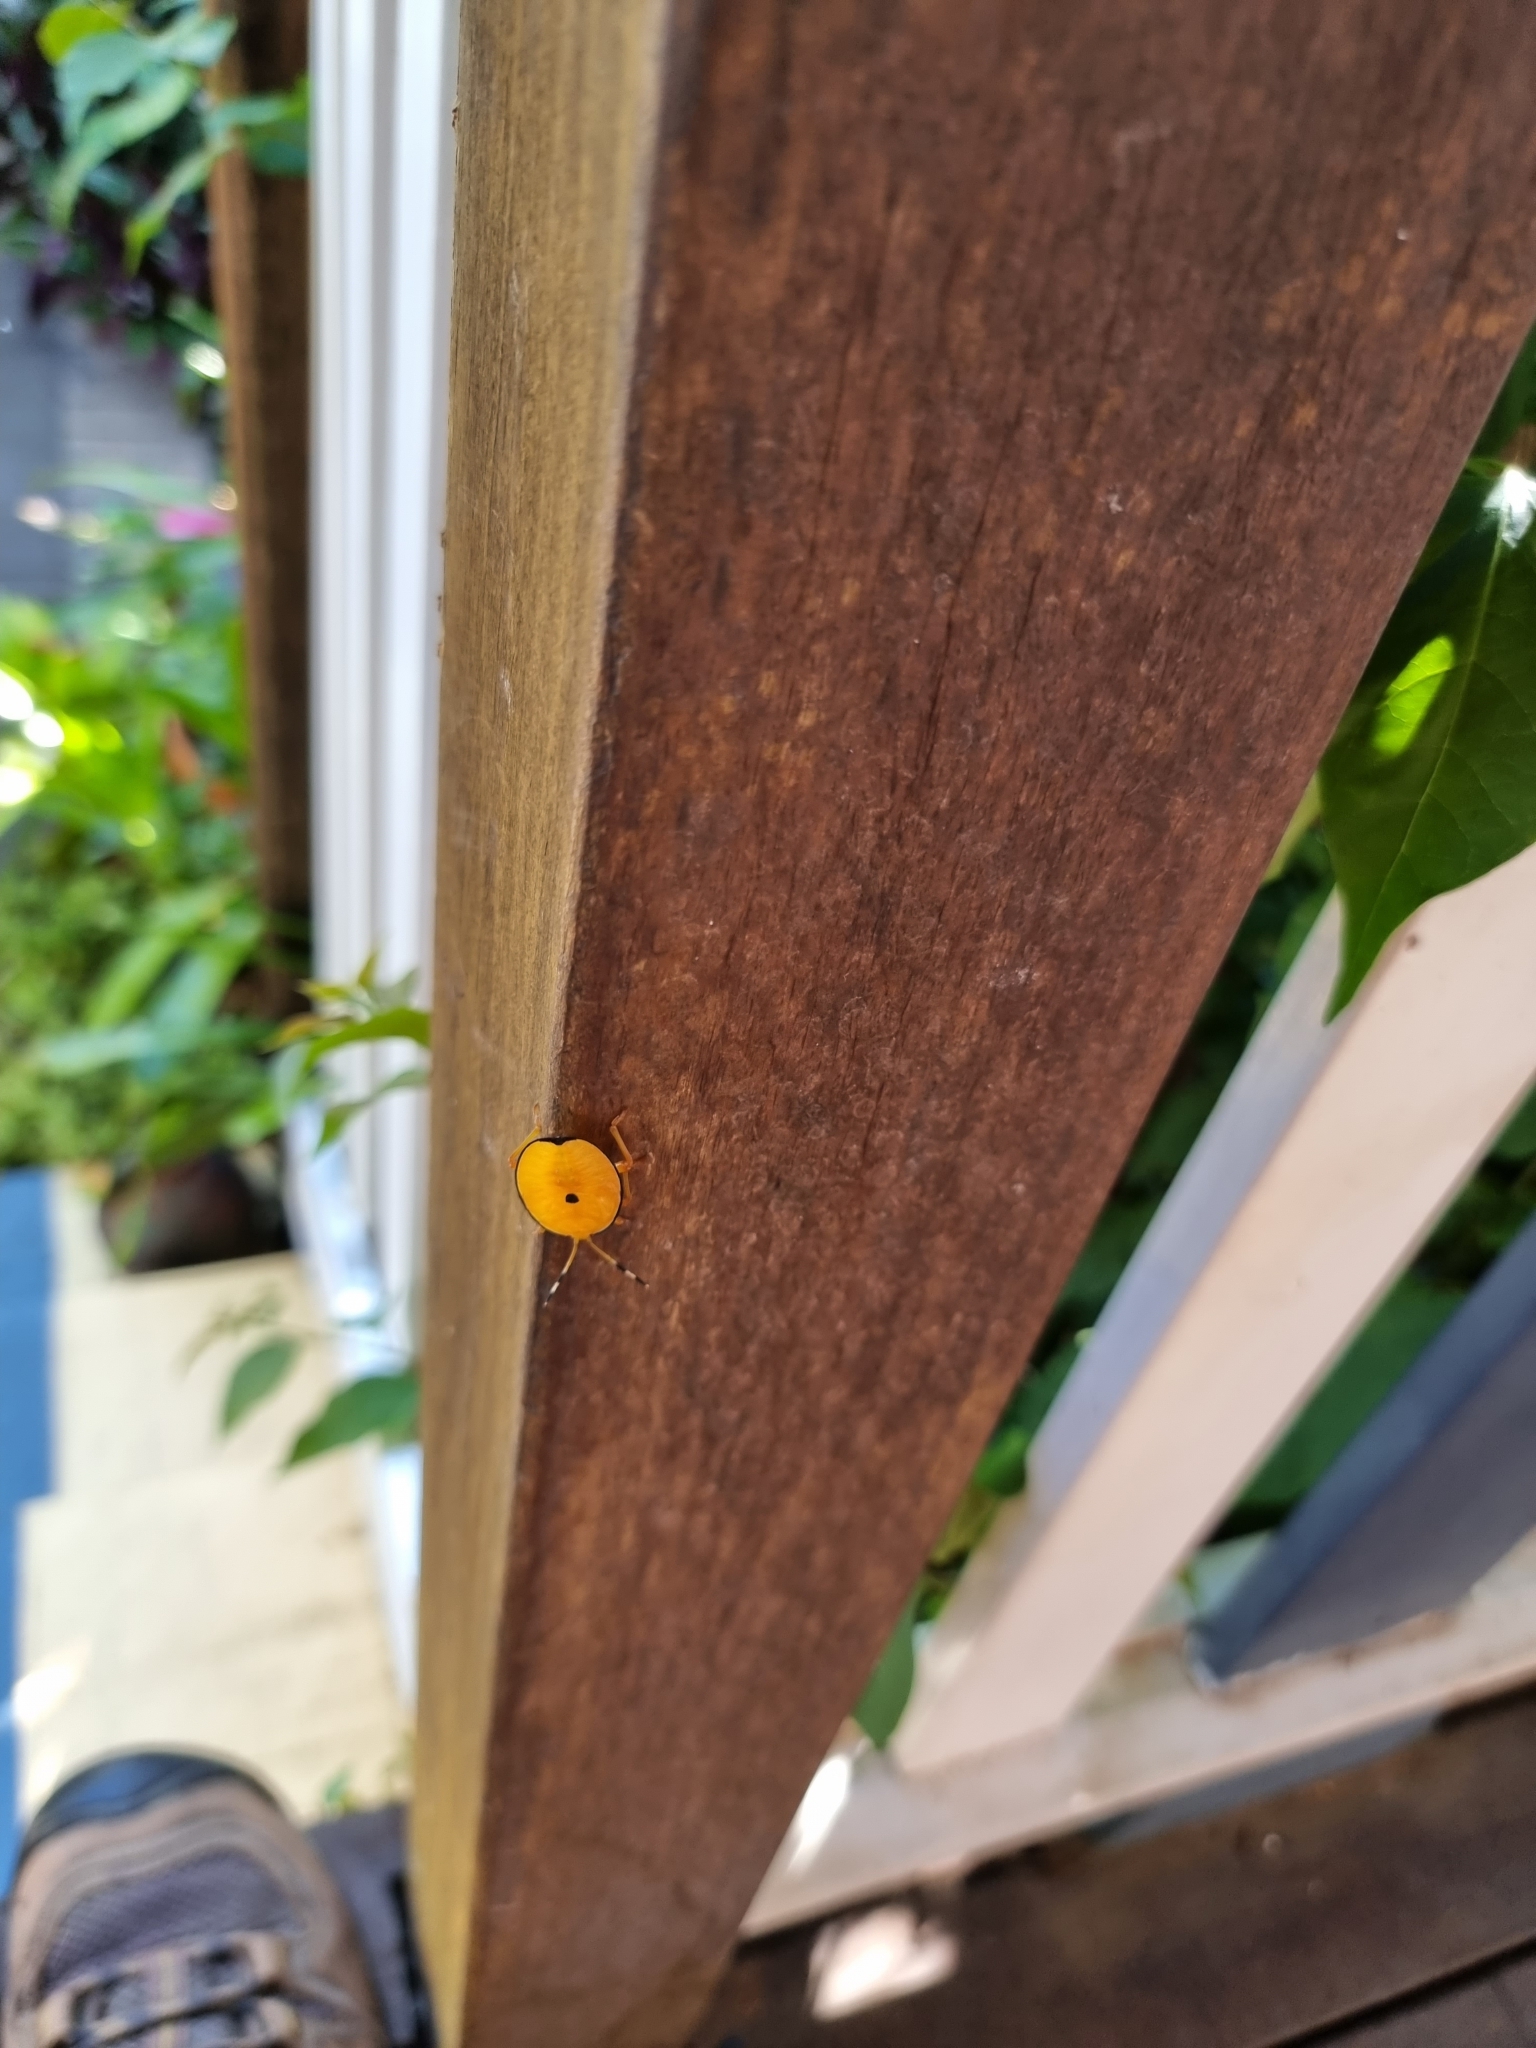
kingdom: Animalia
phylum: Arthropoda
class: Insecta
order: Hemiptera
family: Tessaratomidae
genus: Musgraveia
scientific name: Musgraveia sulciventris
